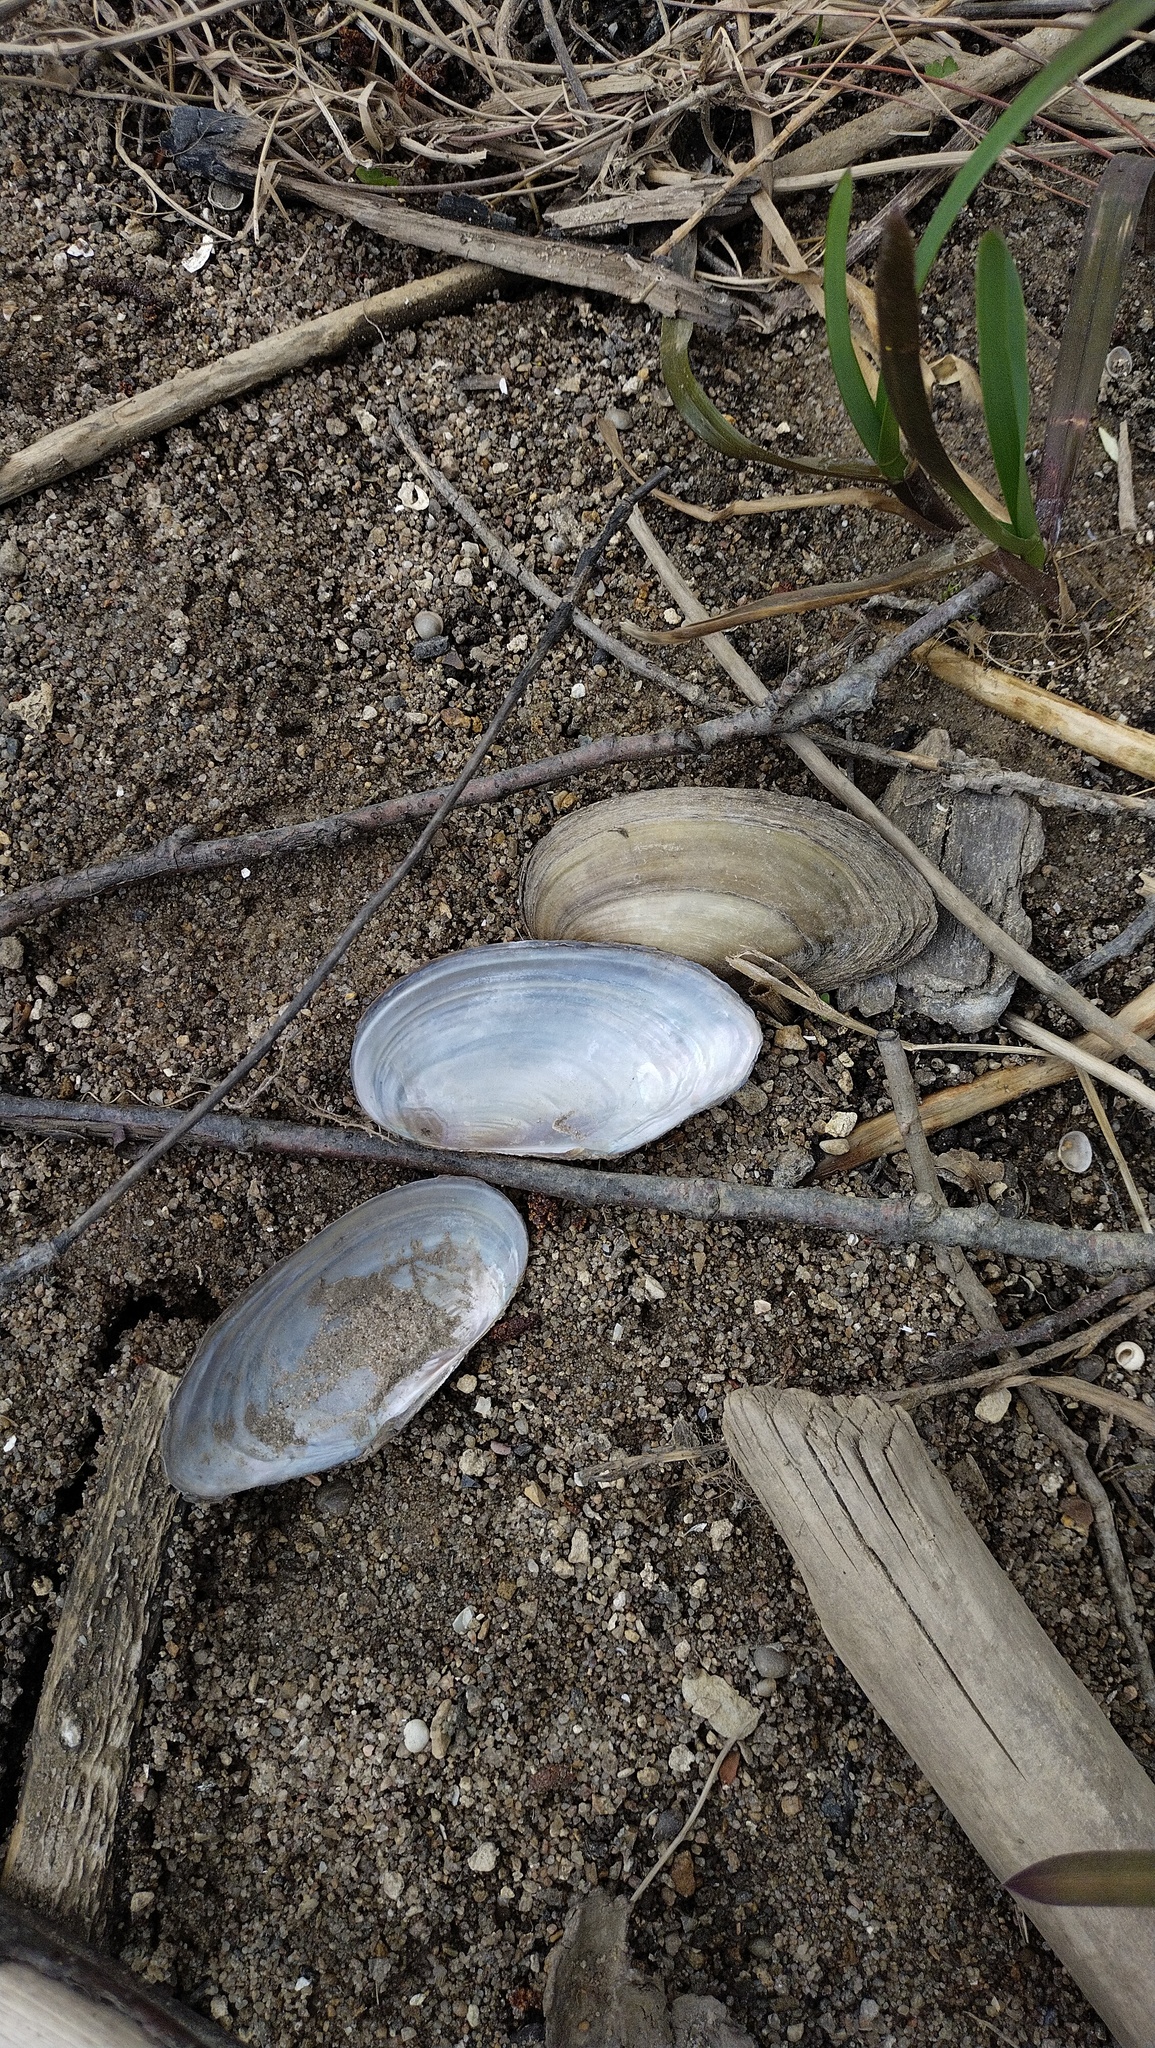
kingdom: Animalia
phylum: Mollusca
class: Bivalvia
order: Unionida
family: Unionidae
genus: Anodonta
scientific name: Anodonta cygnea
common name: Swan mussel
